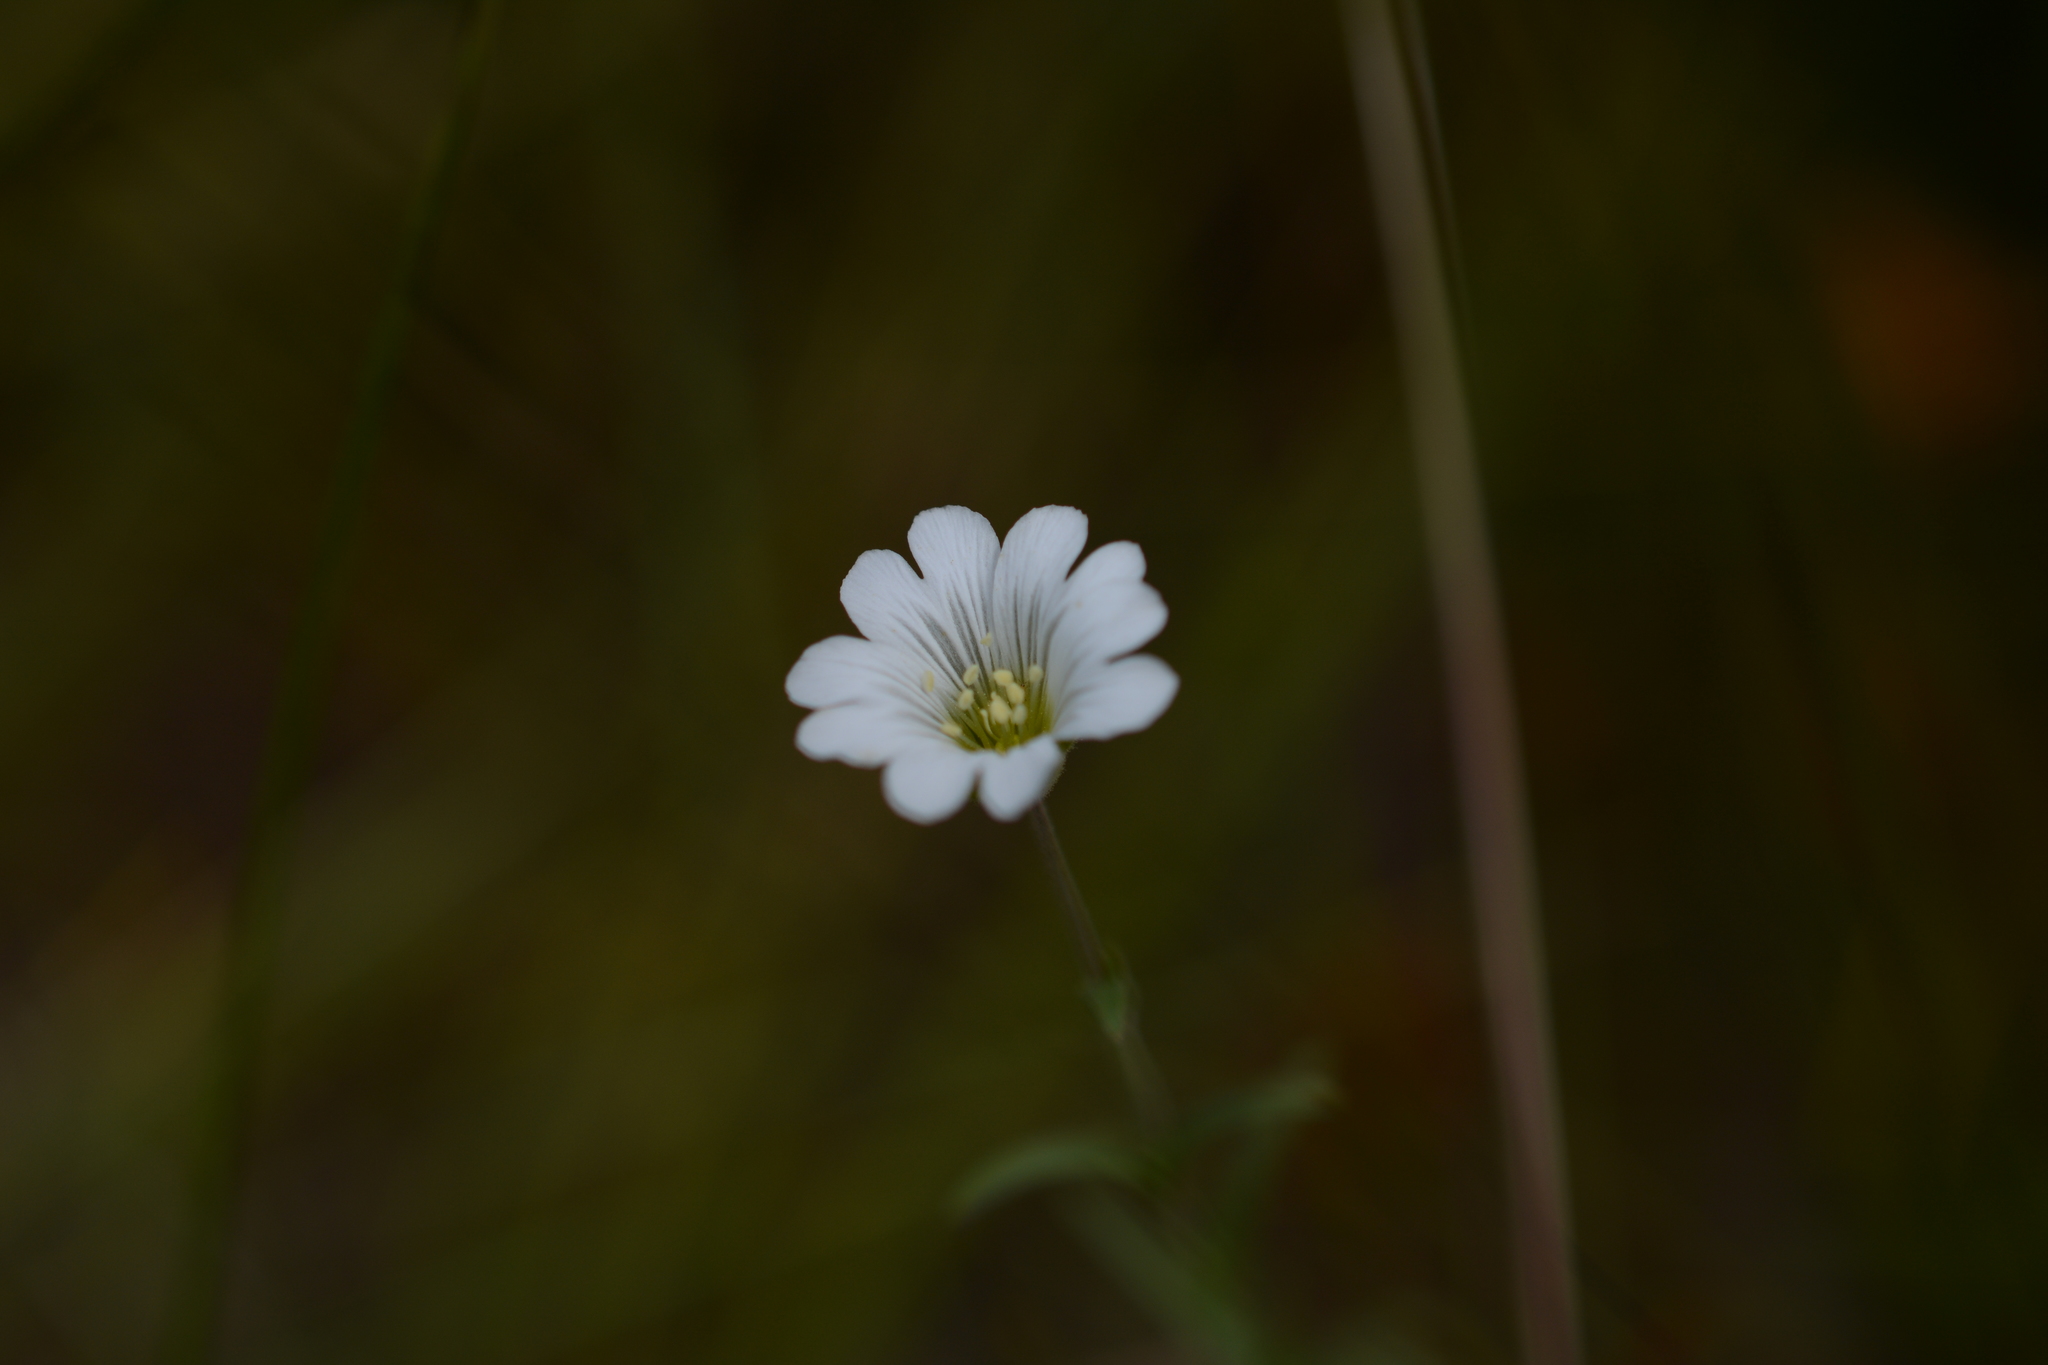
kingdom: Plantae
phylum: Tracheophyta
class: Magnoliopsida
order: Caryophyllales
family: Caryophyllaceae
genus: Cerastium
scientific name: Cerastium arvense
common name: Field mouse-ear
